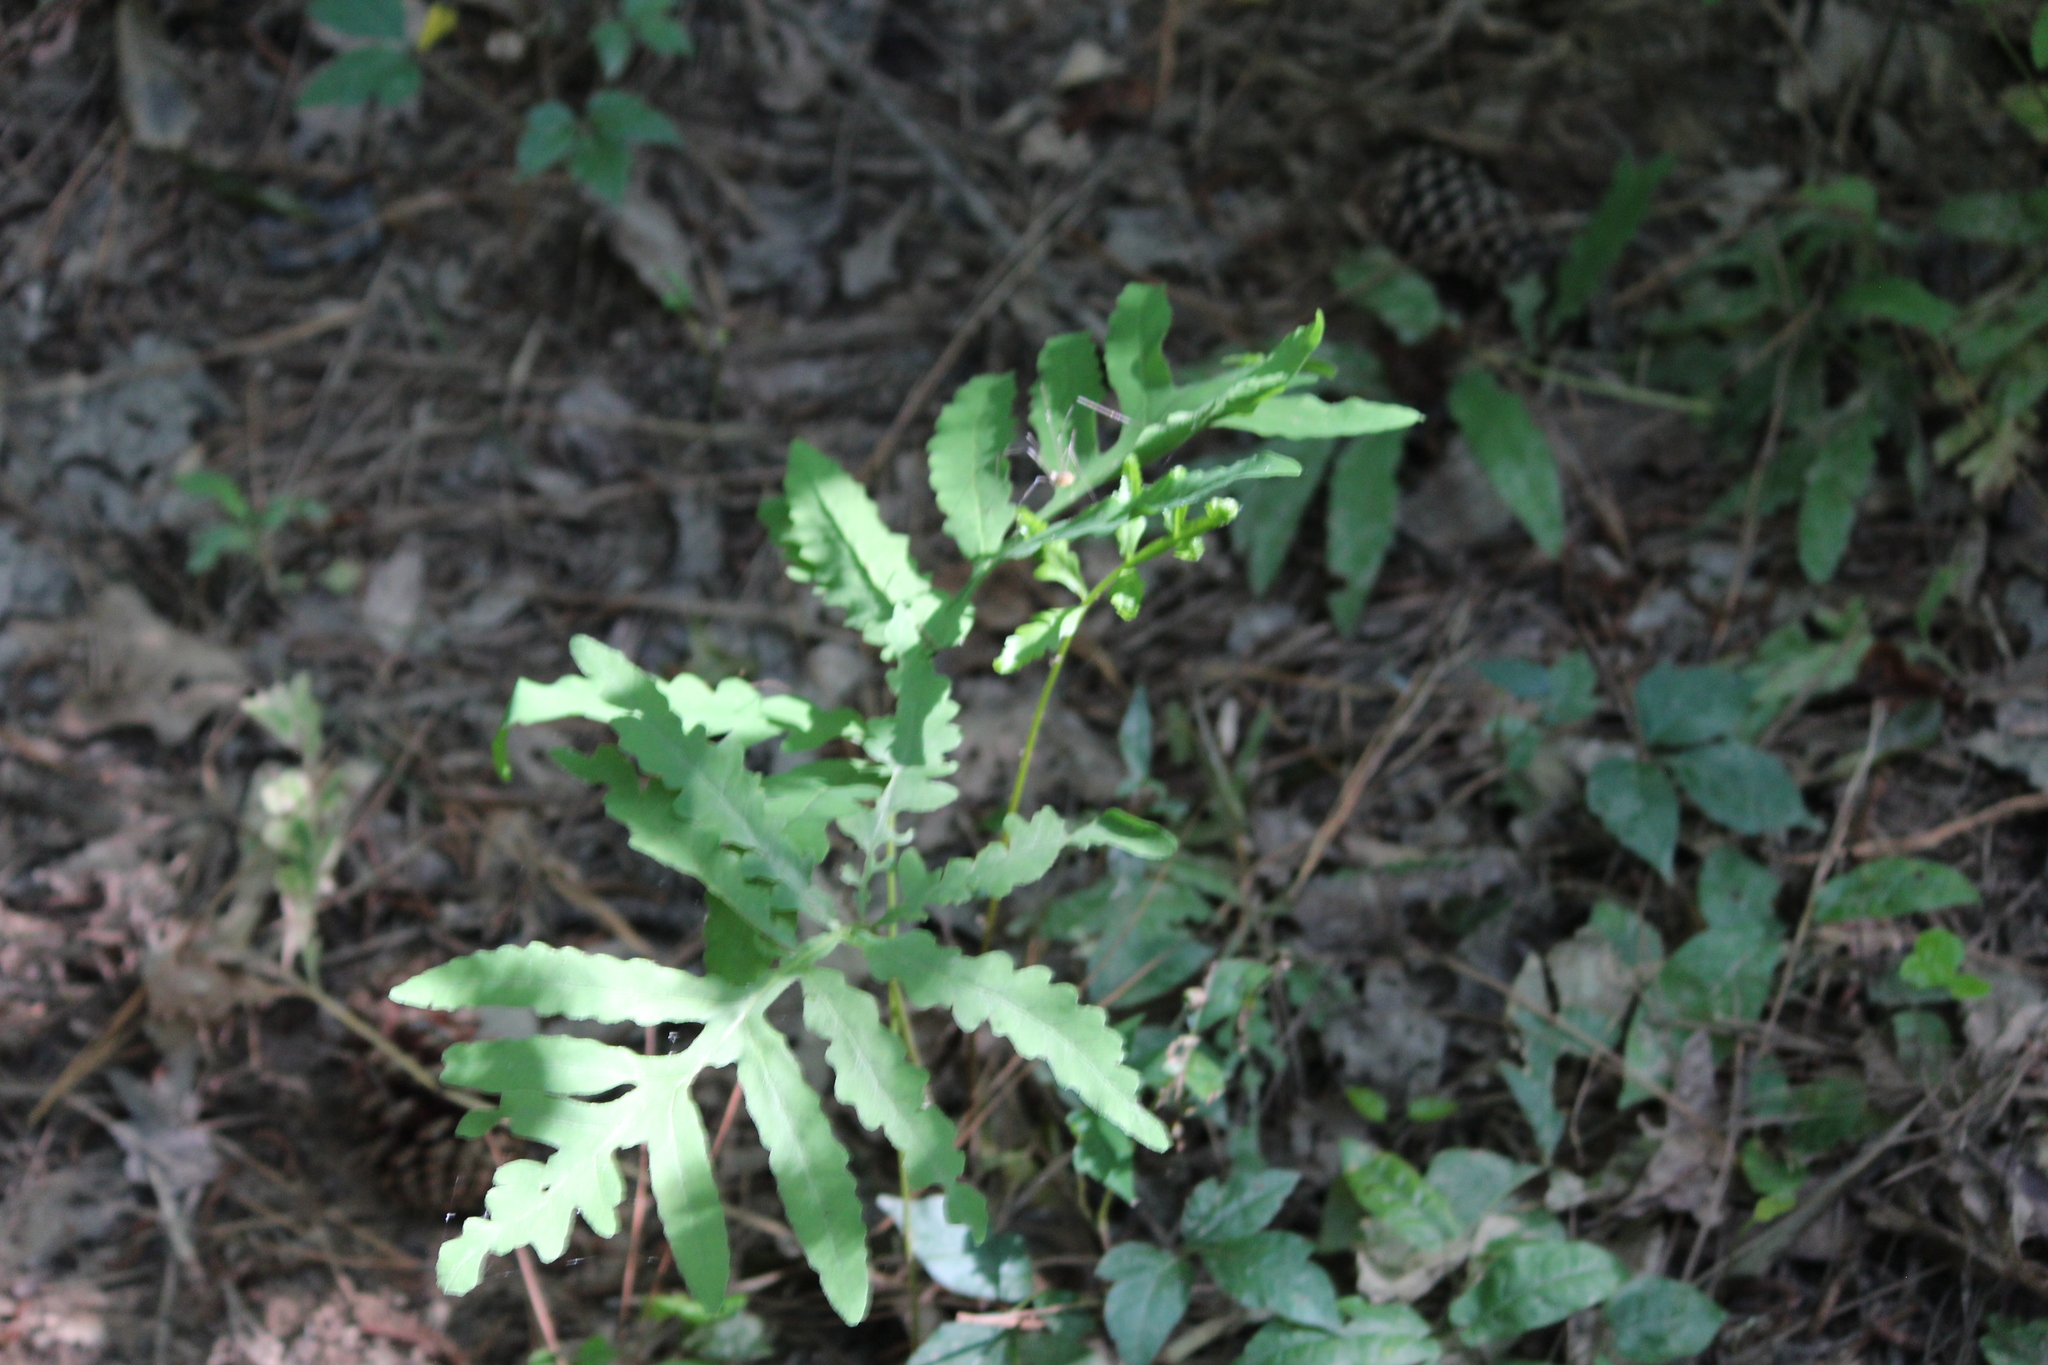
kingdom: Plantae
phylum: Tracheophyta
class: Polypodiopsida
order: Polypodiales
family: Onocleaceae
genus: Onoclea
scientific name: Onoclea sensibilis
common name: Sensitive fern
